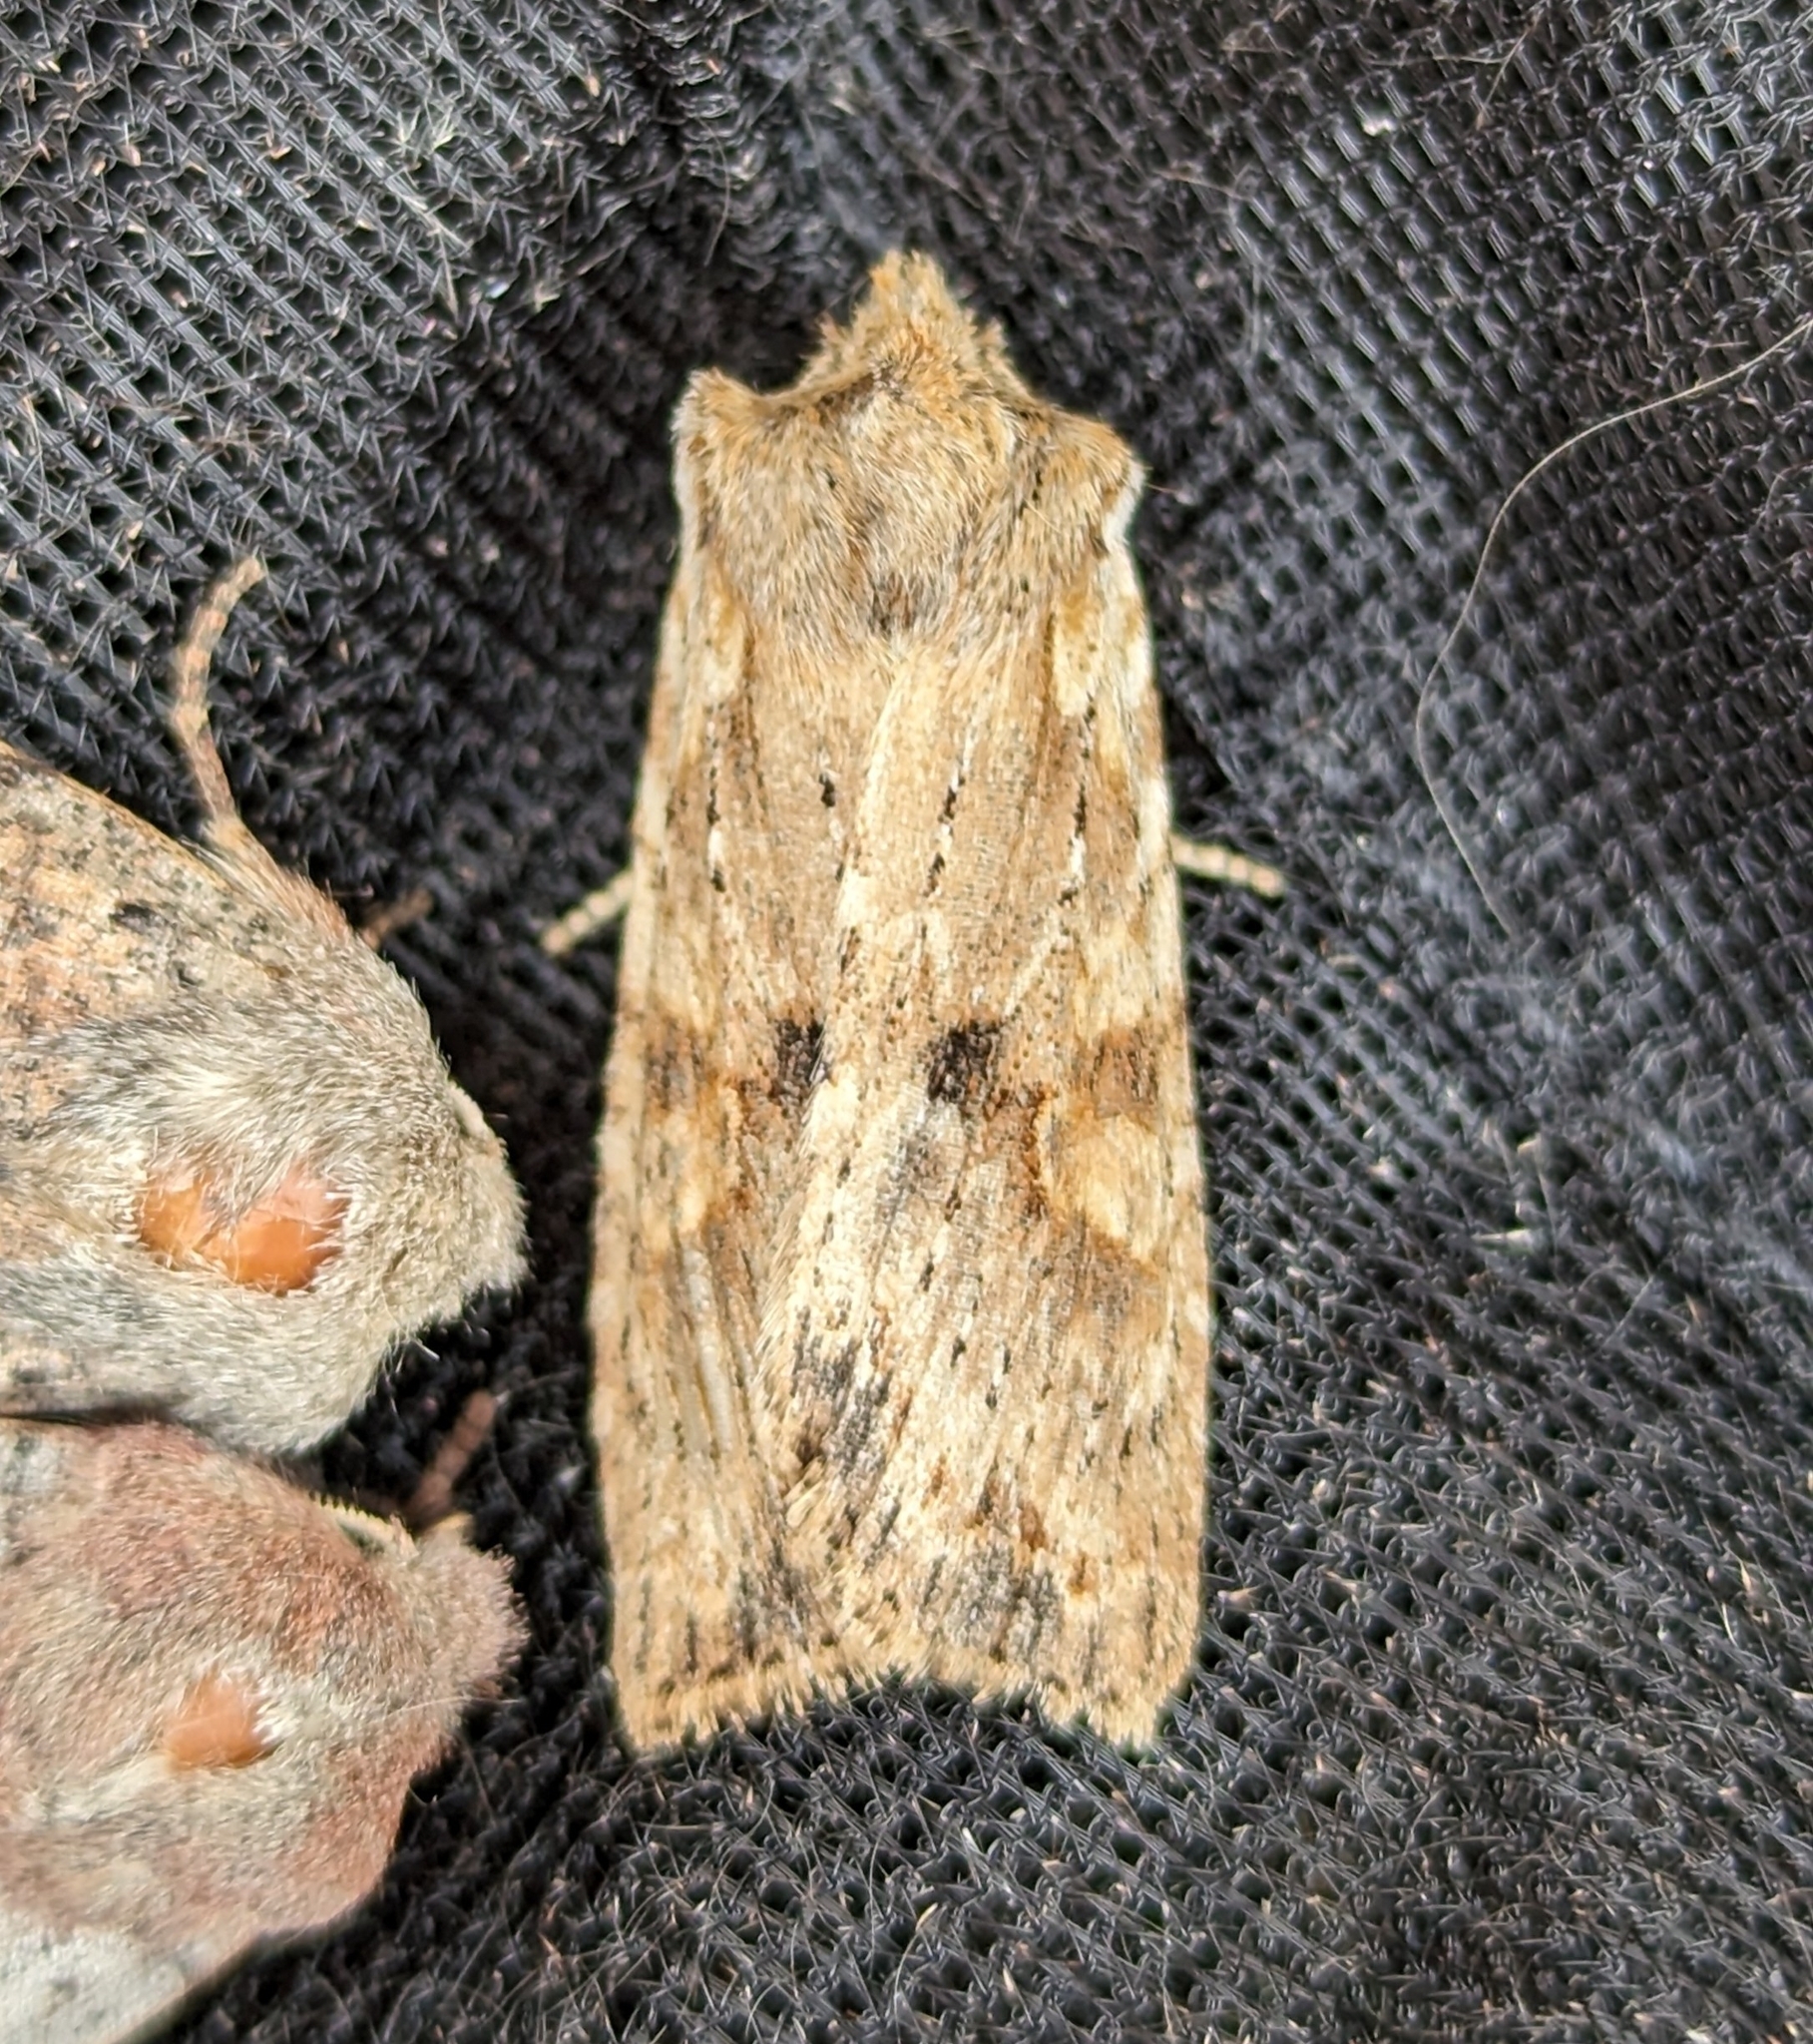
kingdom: Animalia
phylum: Arthropoda
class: Insecta
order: Lepidoptera
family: Noctuidae
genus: Lithophane
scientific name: Lithophane innominata
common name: Nameless pinion moth
